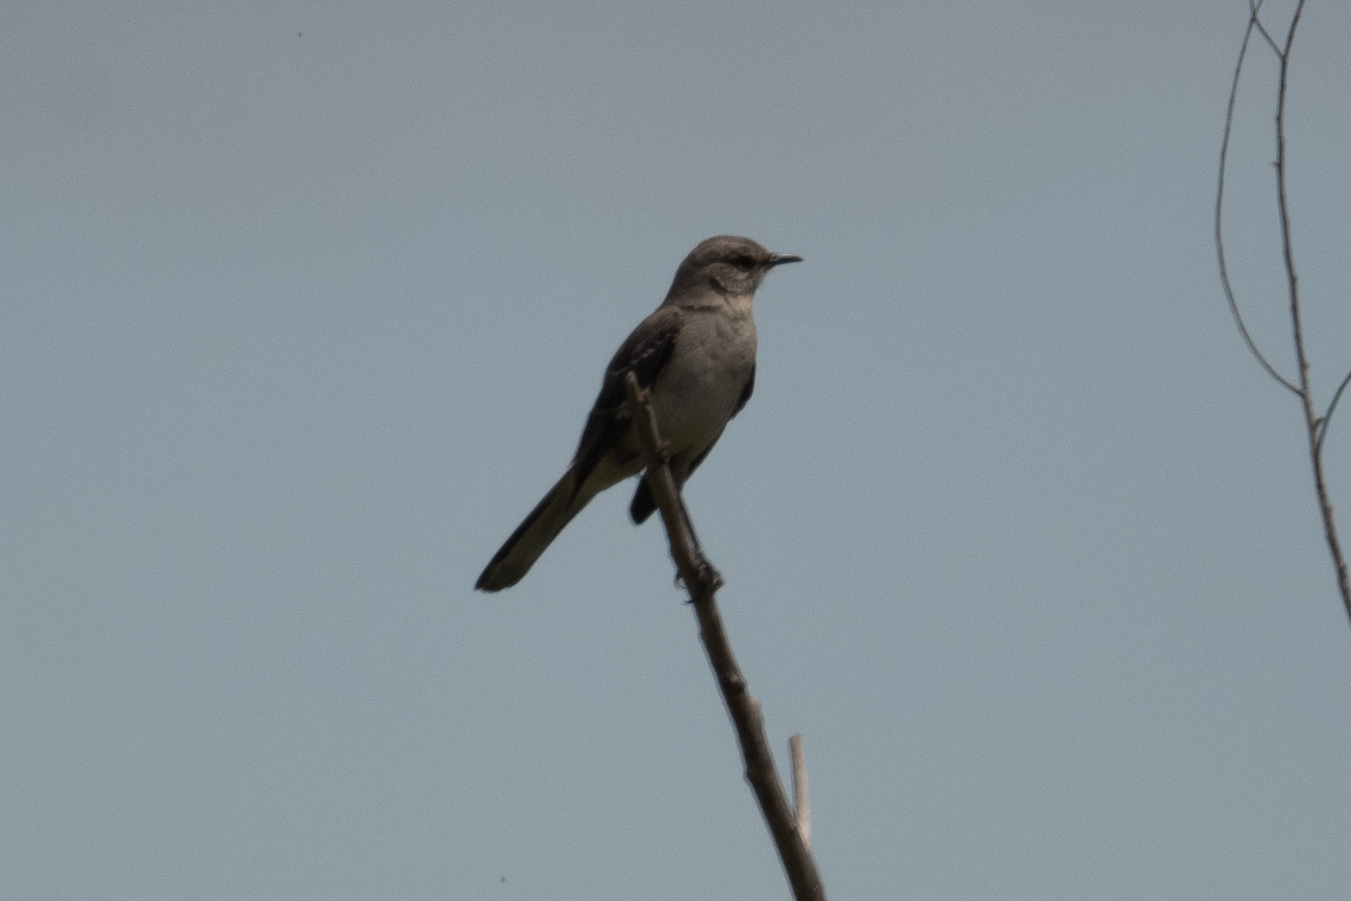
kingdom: Animalia
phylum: Chordata
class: Aves
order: Passeriformes
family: Mimidae
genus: Mimus
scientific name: Mimus polyglottos
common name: Northern mockingbird
